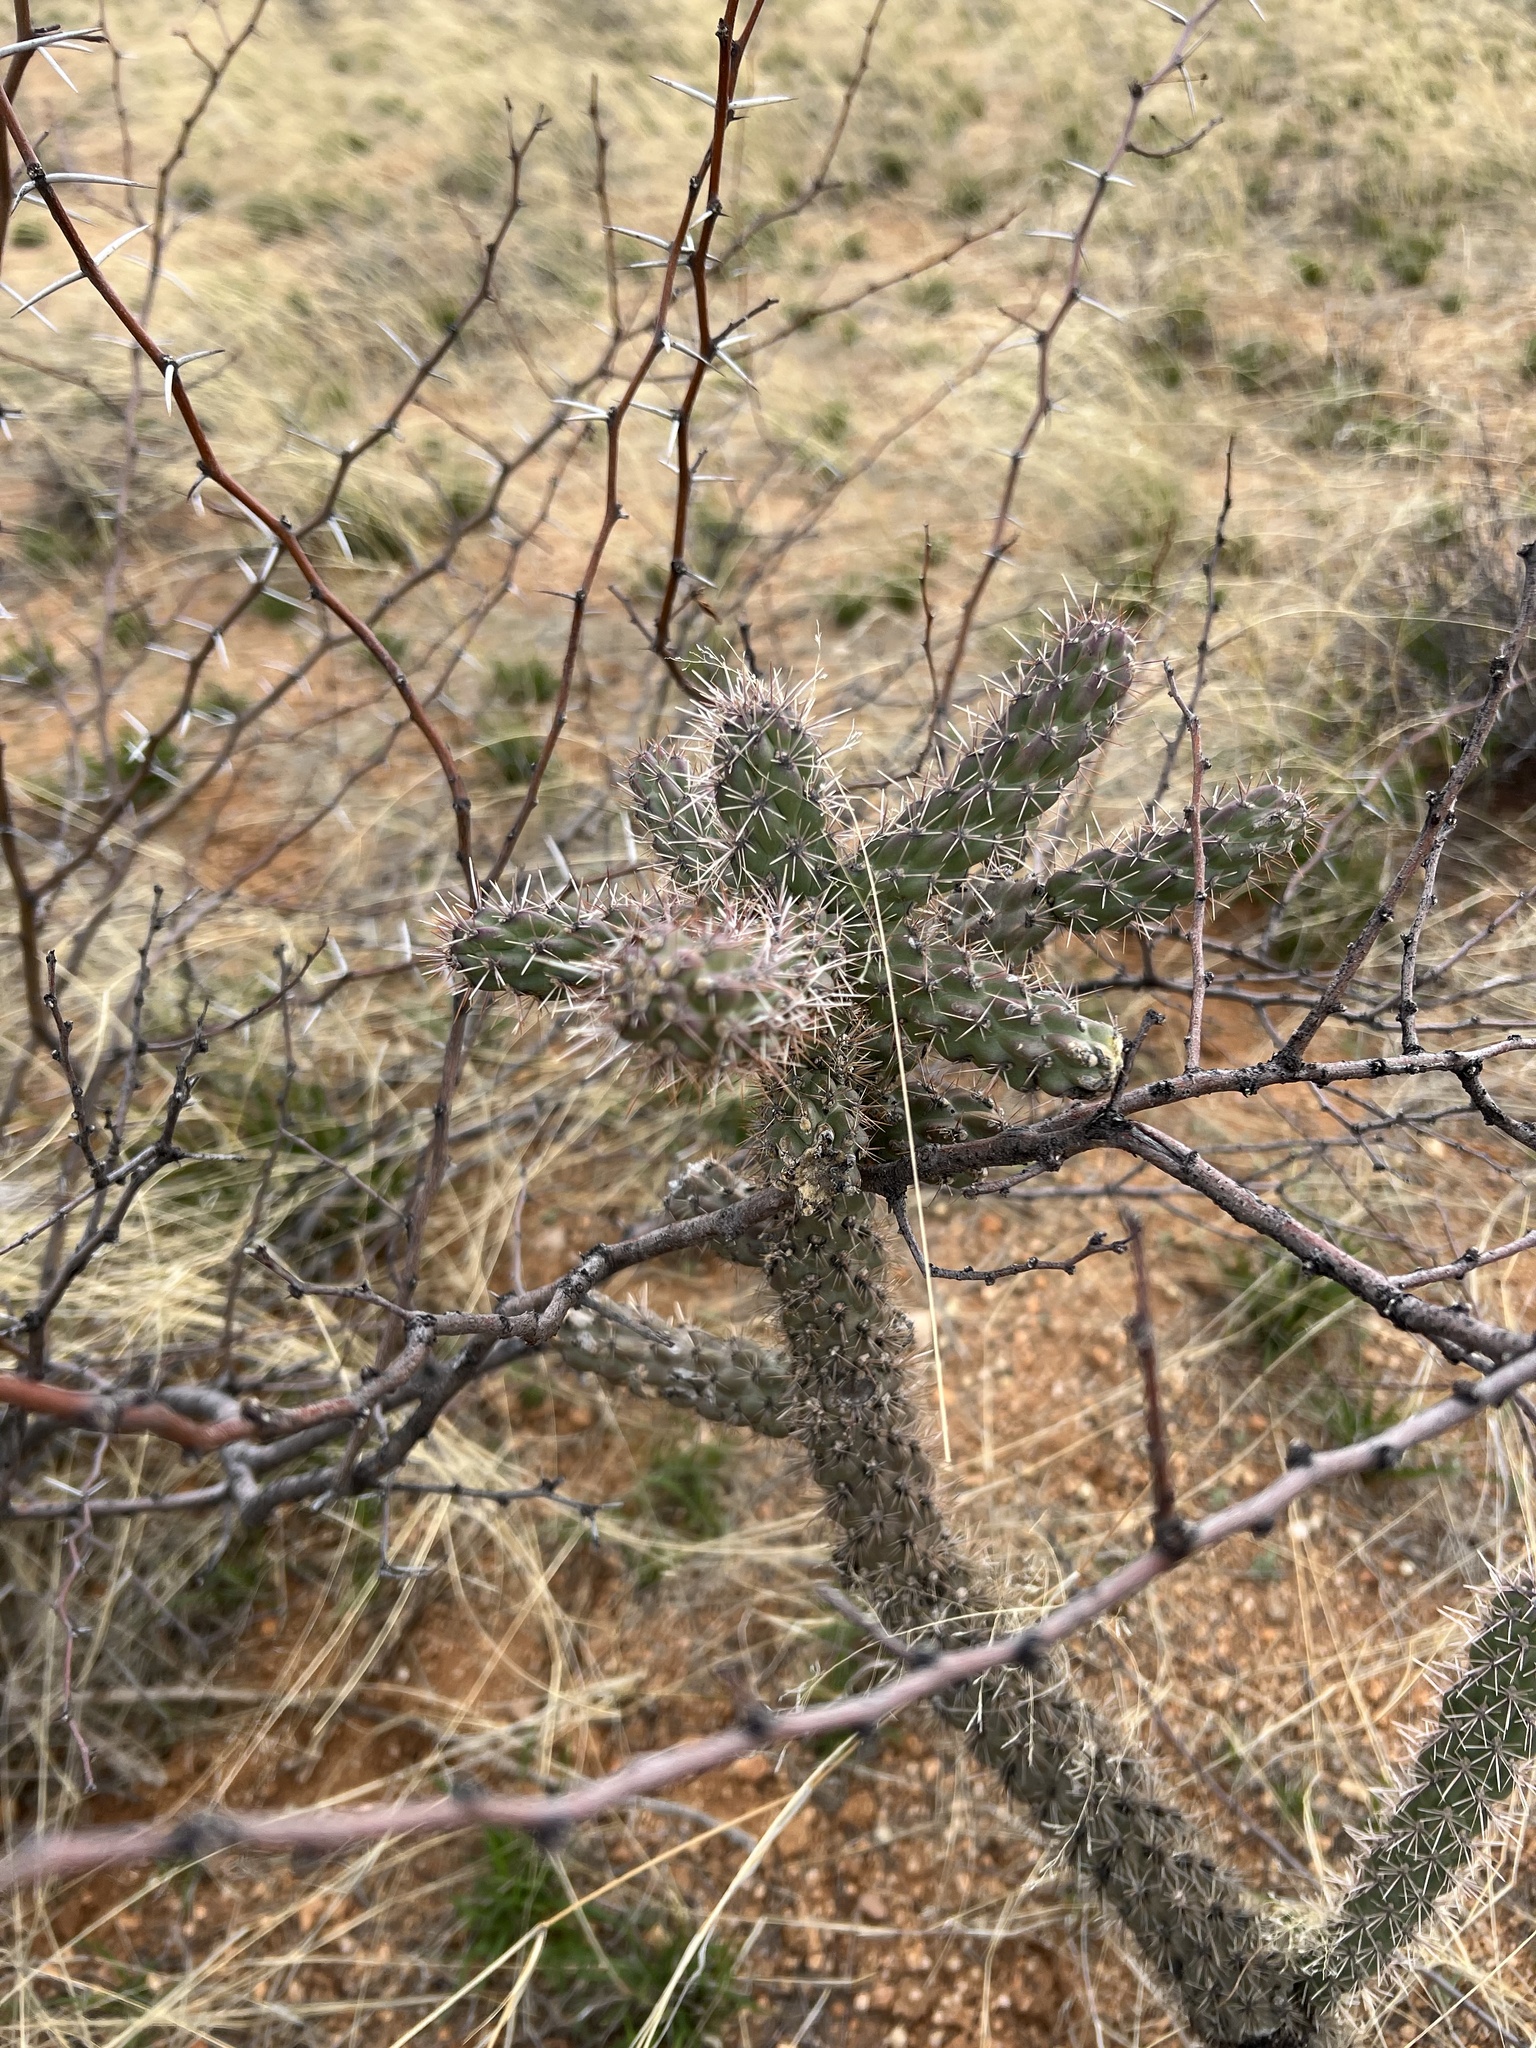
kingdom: Plantae
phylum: Tracheophyta
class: Magnoliopsida
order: Caryophyllales
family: Cactaceae
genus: Cylindropuntia
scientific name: Cylindropuntia imbricata
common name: Candelabrum cactus
